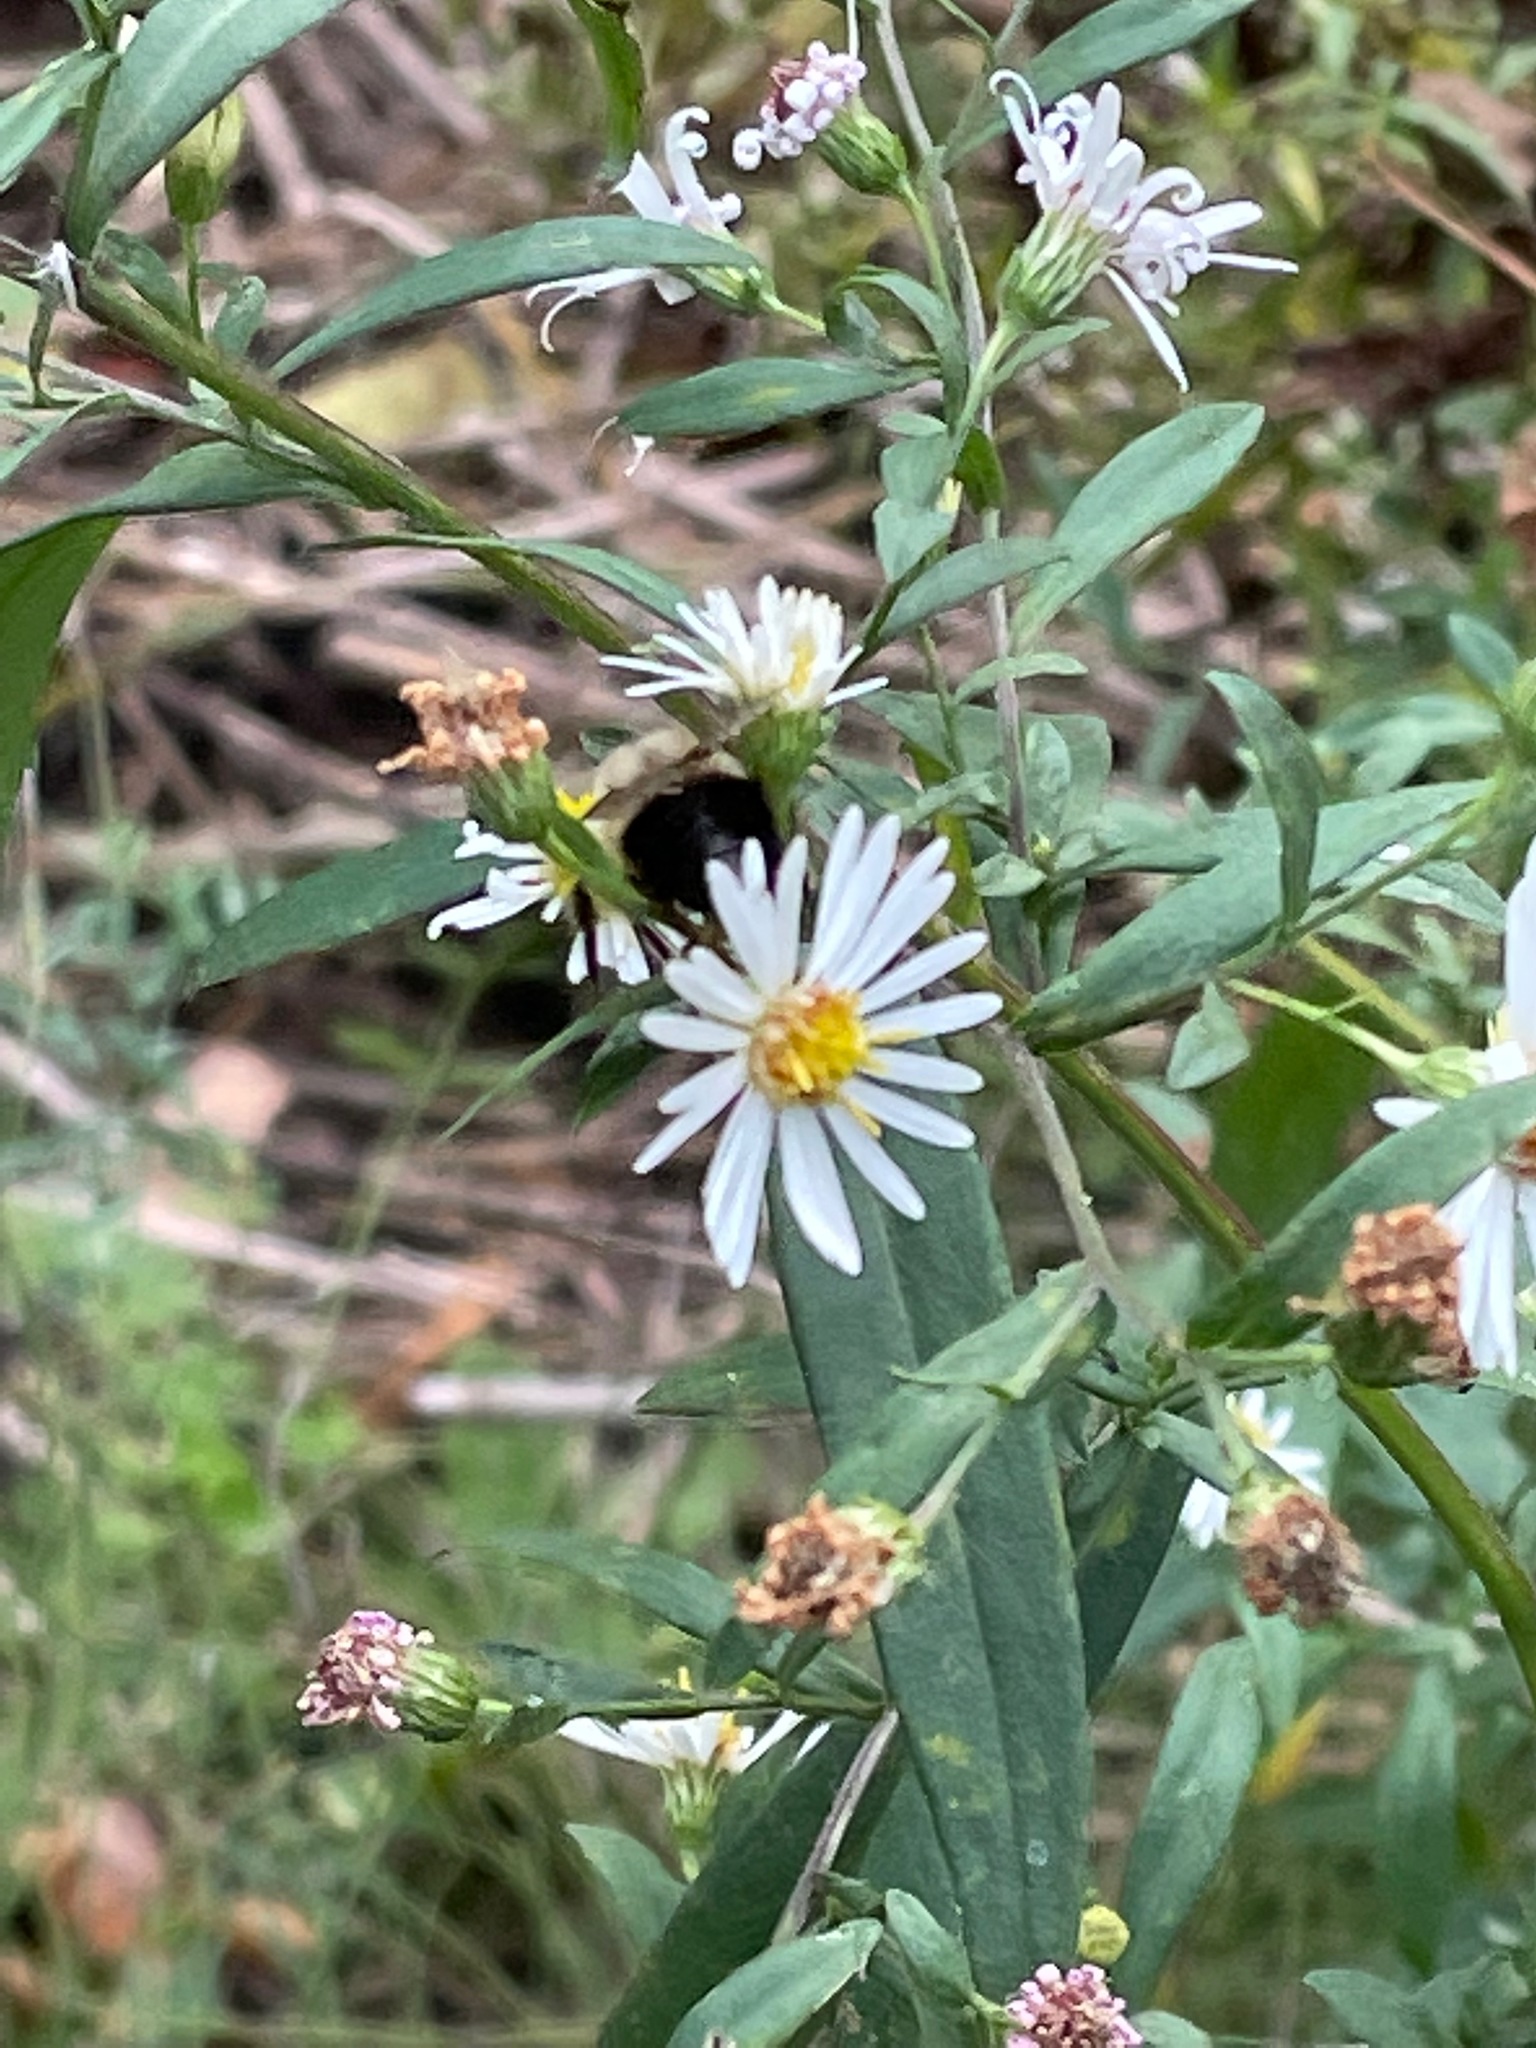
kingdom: Animalia
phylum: Arthropoda
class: Insecta
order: Hymenoptera
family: Apidae
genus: Bombus
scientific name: Bombus impatiens
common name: Common eastern bumble bee
